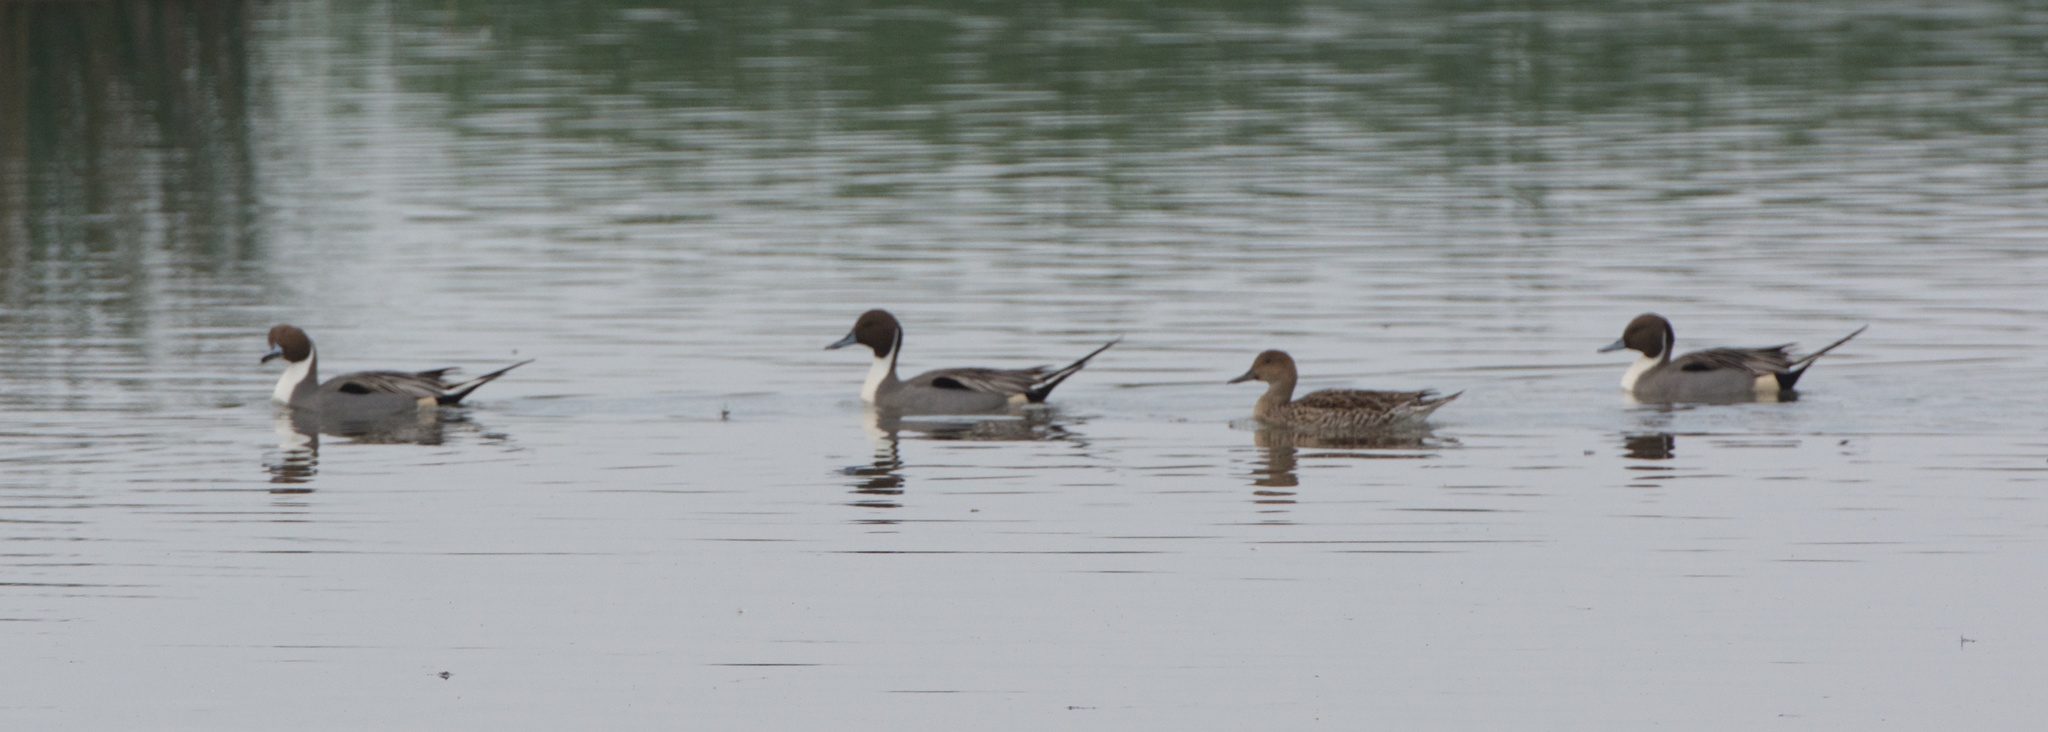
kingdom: Animalia
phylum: Chordata
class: Aves
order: Anseriformes
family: Anatidae
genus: Anas
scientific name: Anas acuta
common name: Northern pintail
